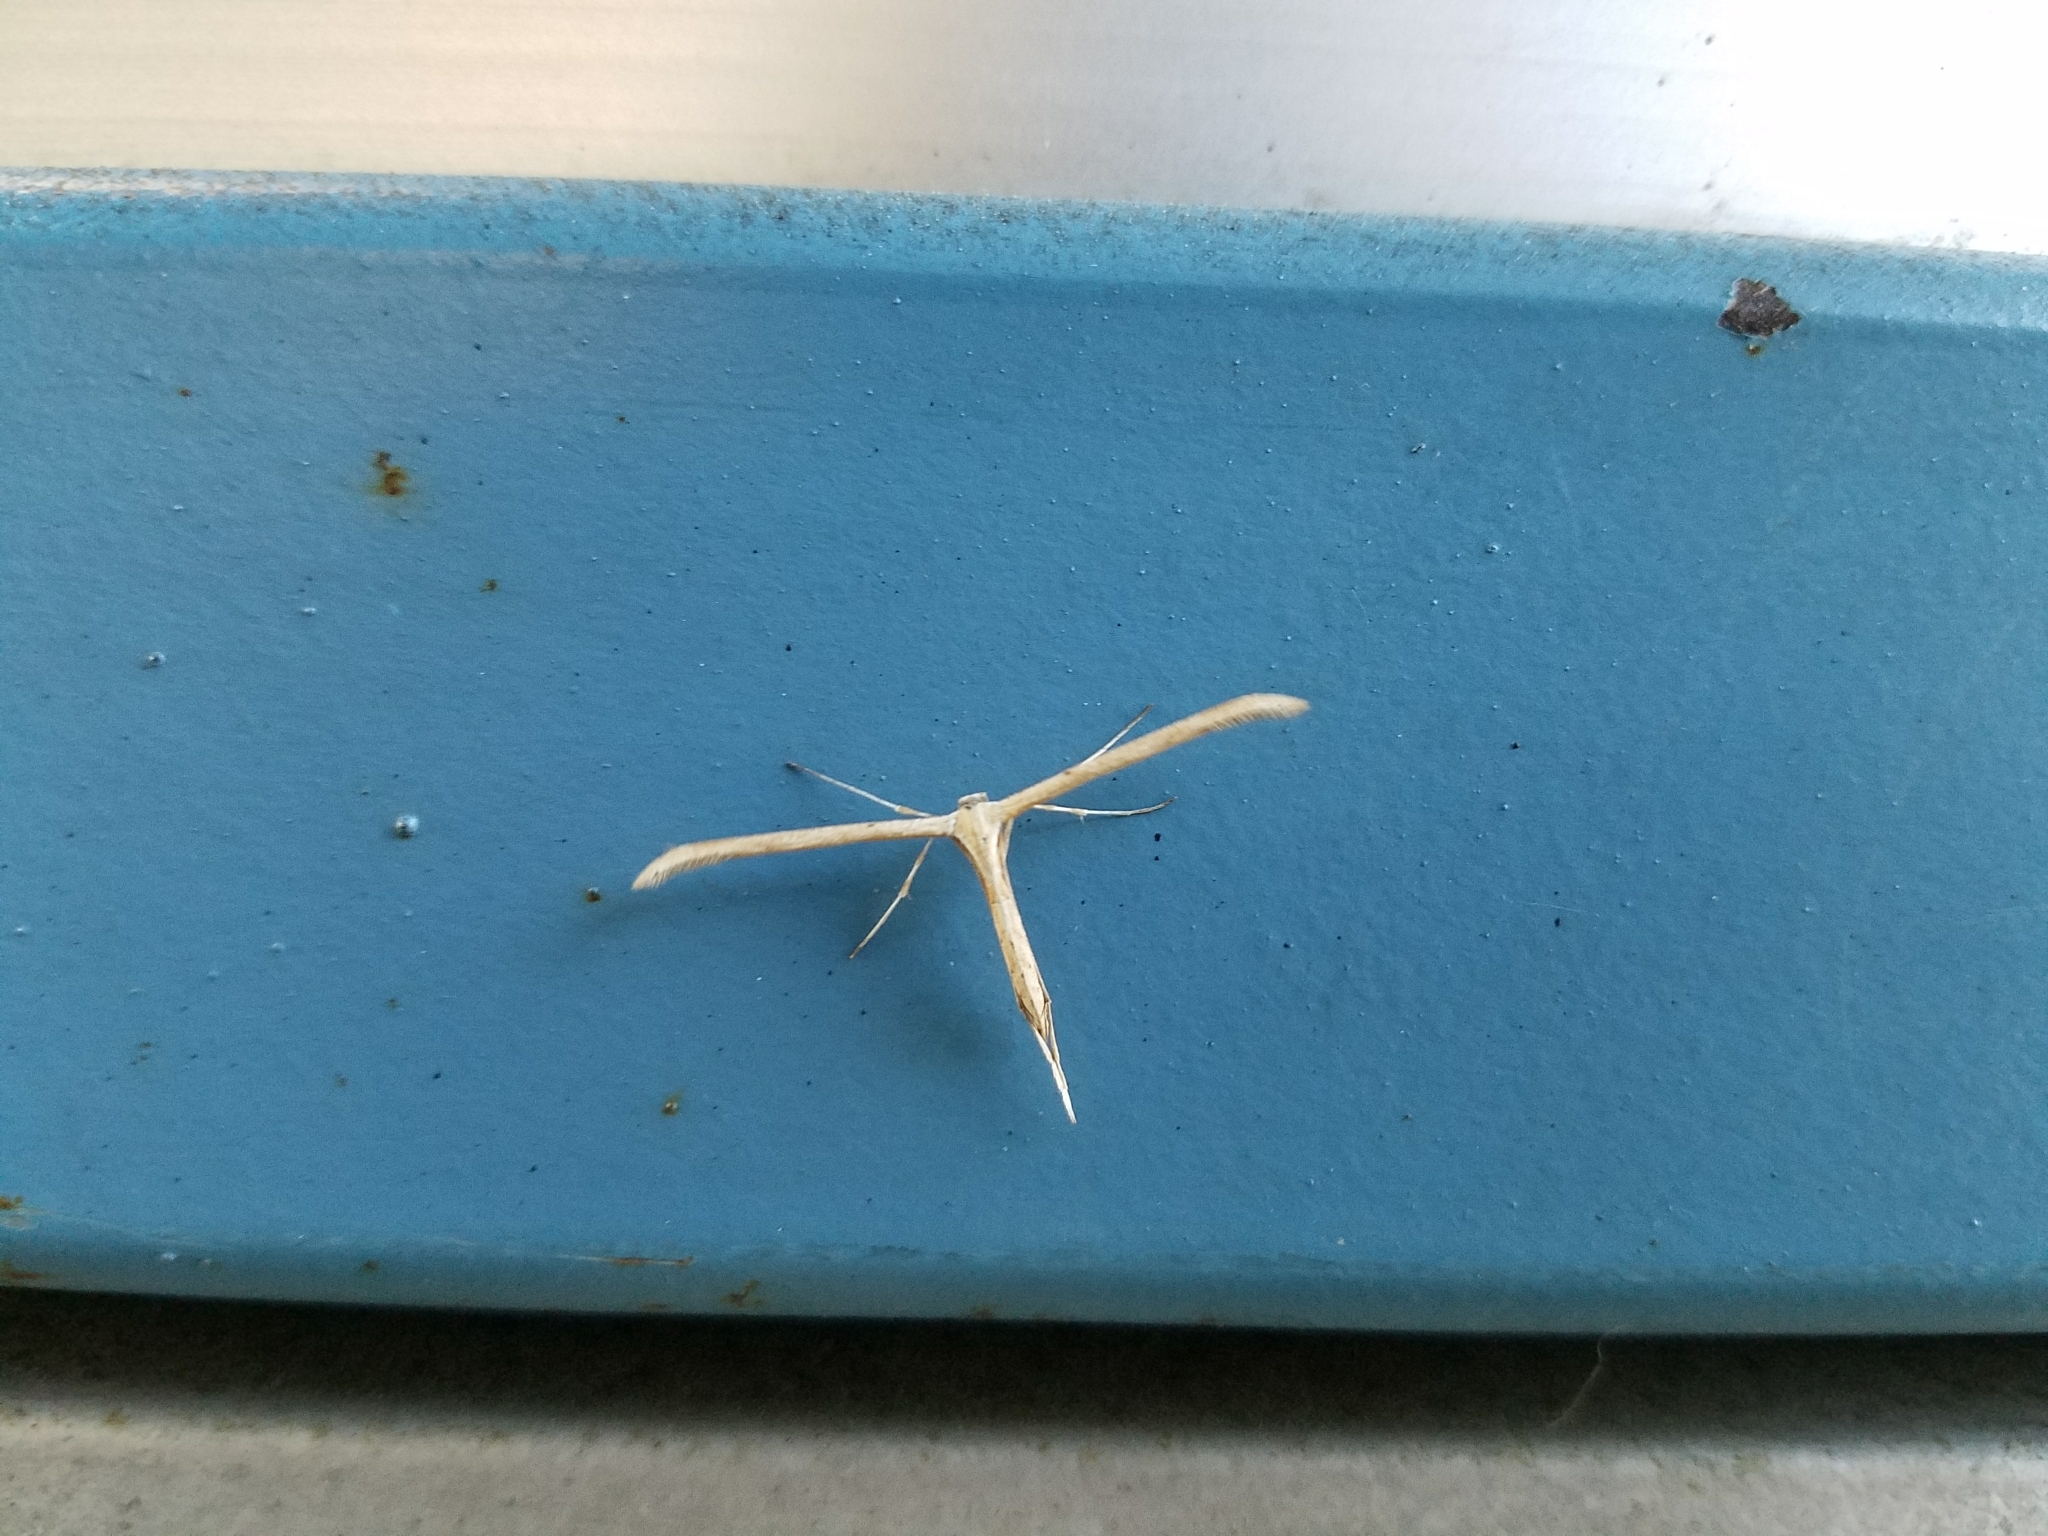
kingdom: Animalia
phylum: Arthropoda
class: Insecta
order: Lepidoptera
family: Pterophoridae
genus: Emmelina
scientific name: Emmelina monodactyla
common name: Common plume
